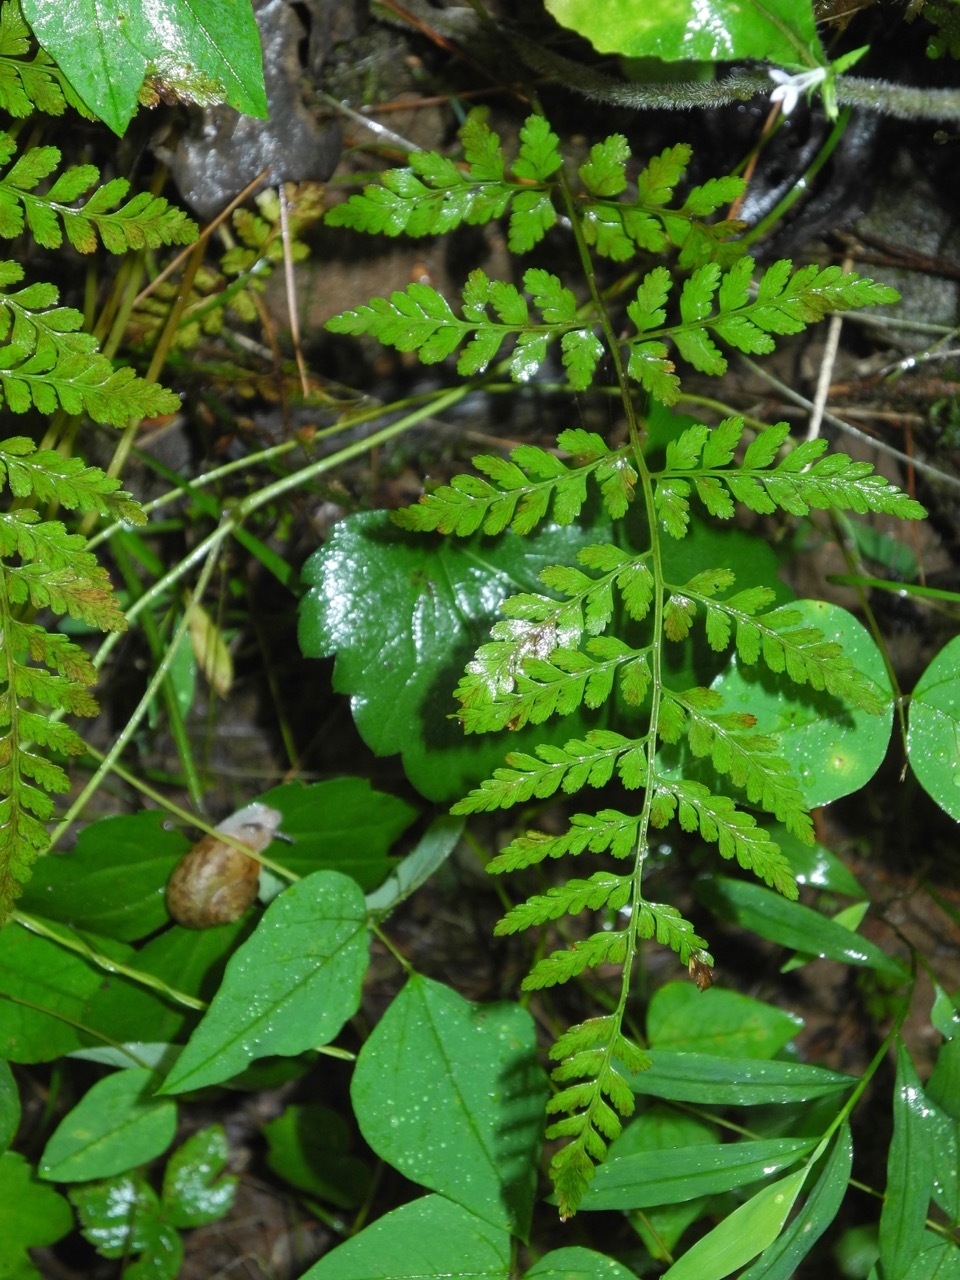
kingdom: Animalia
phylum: Mollusca
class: Gastropoda
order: Stylommatophora
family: Polygyridae
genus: Mesodon
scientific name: Mesodon thyroidus
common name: White-lip globe
